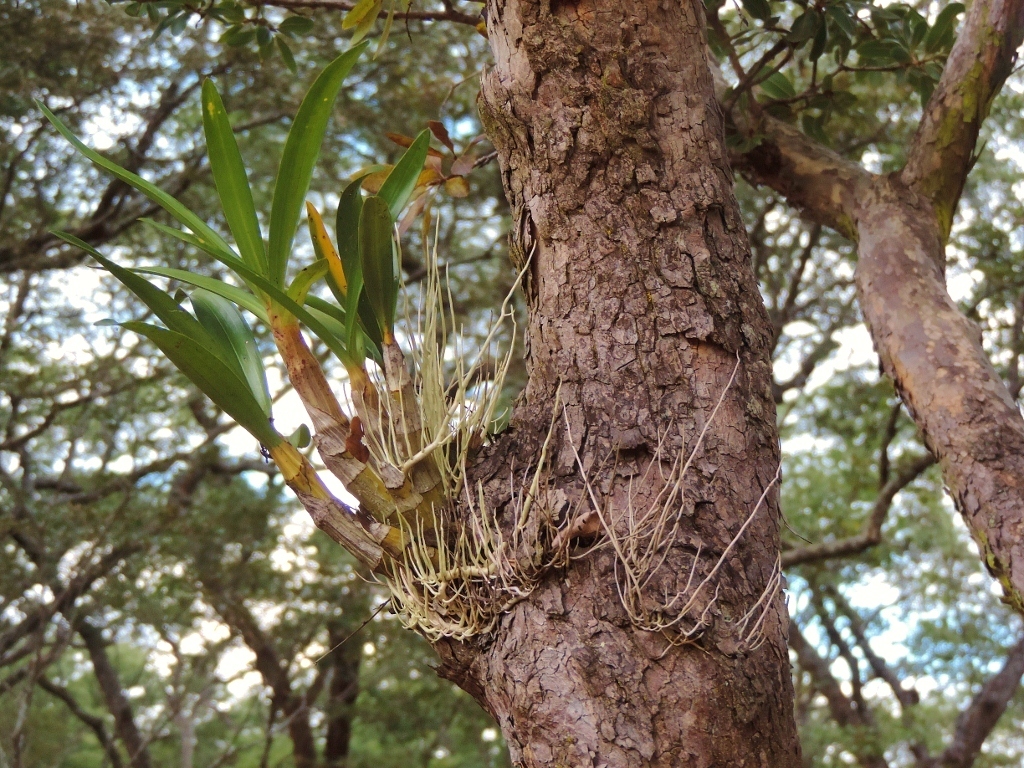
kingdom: Plantae
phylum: Tracheophyta
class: Liliopsida
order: Asparagales
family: Orchidaceae
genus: Ansellia
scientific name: Ansellia africana
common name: African ansellia
